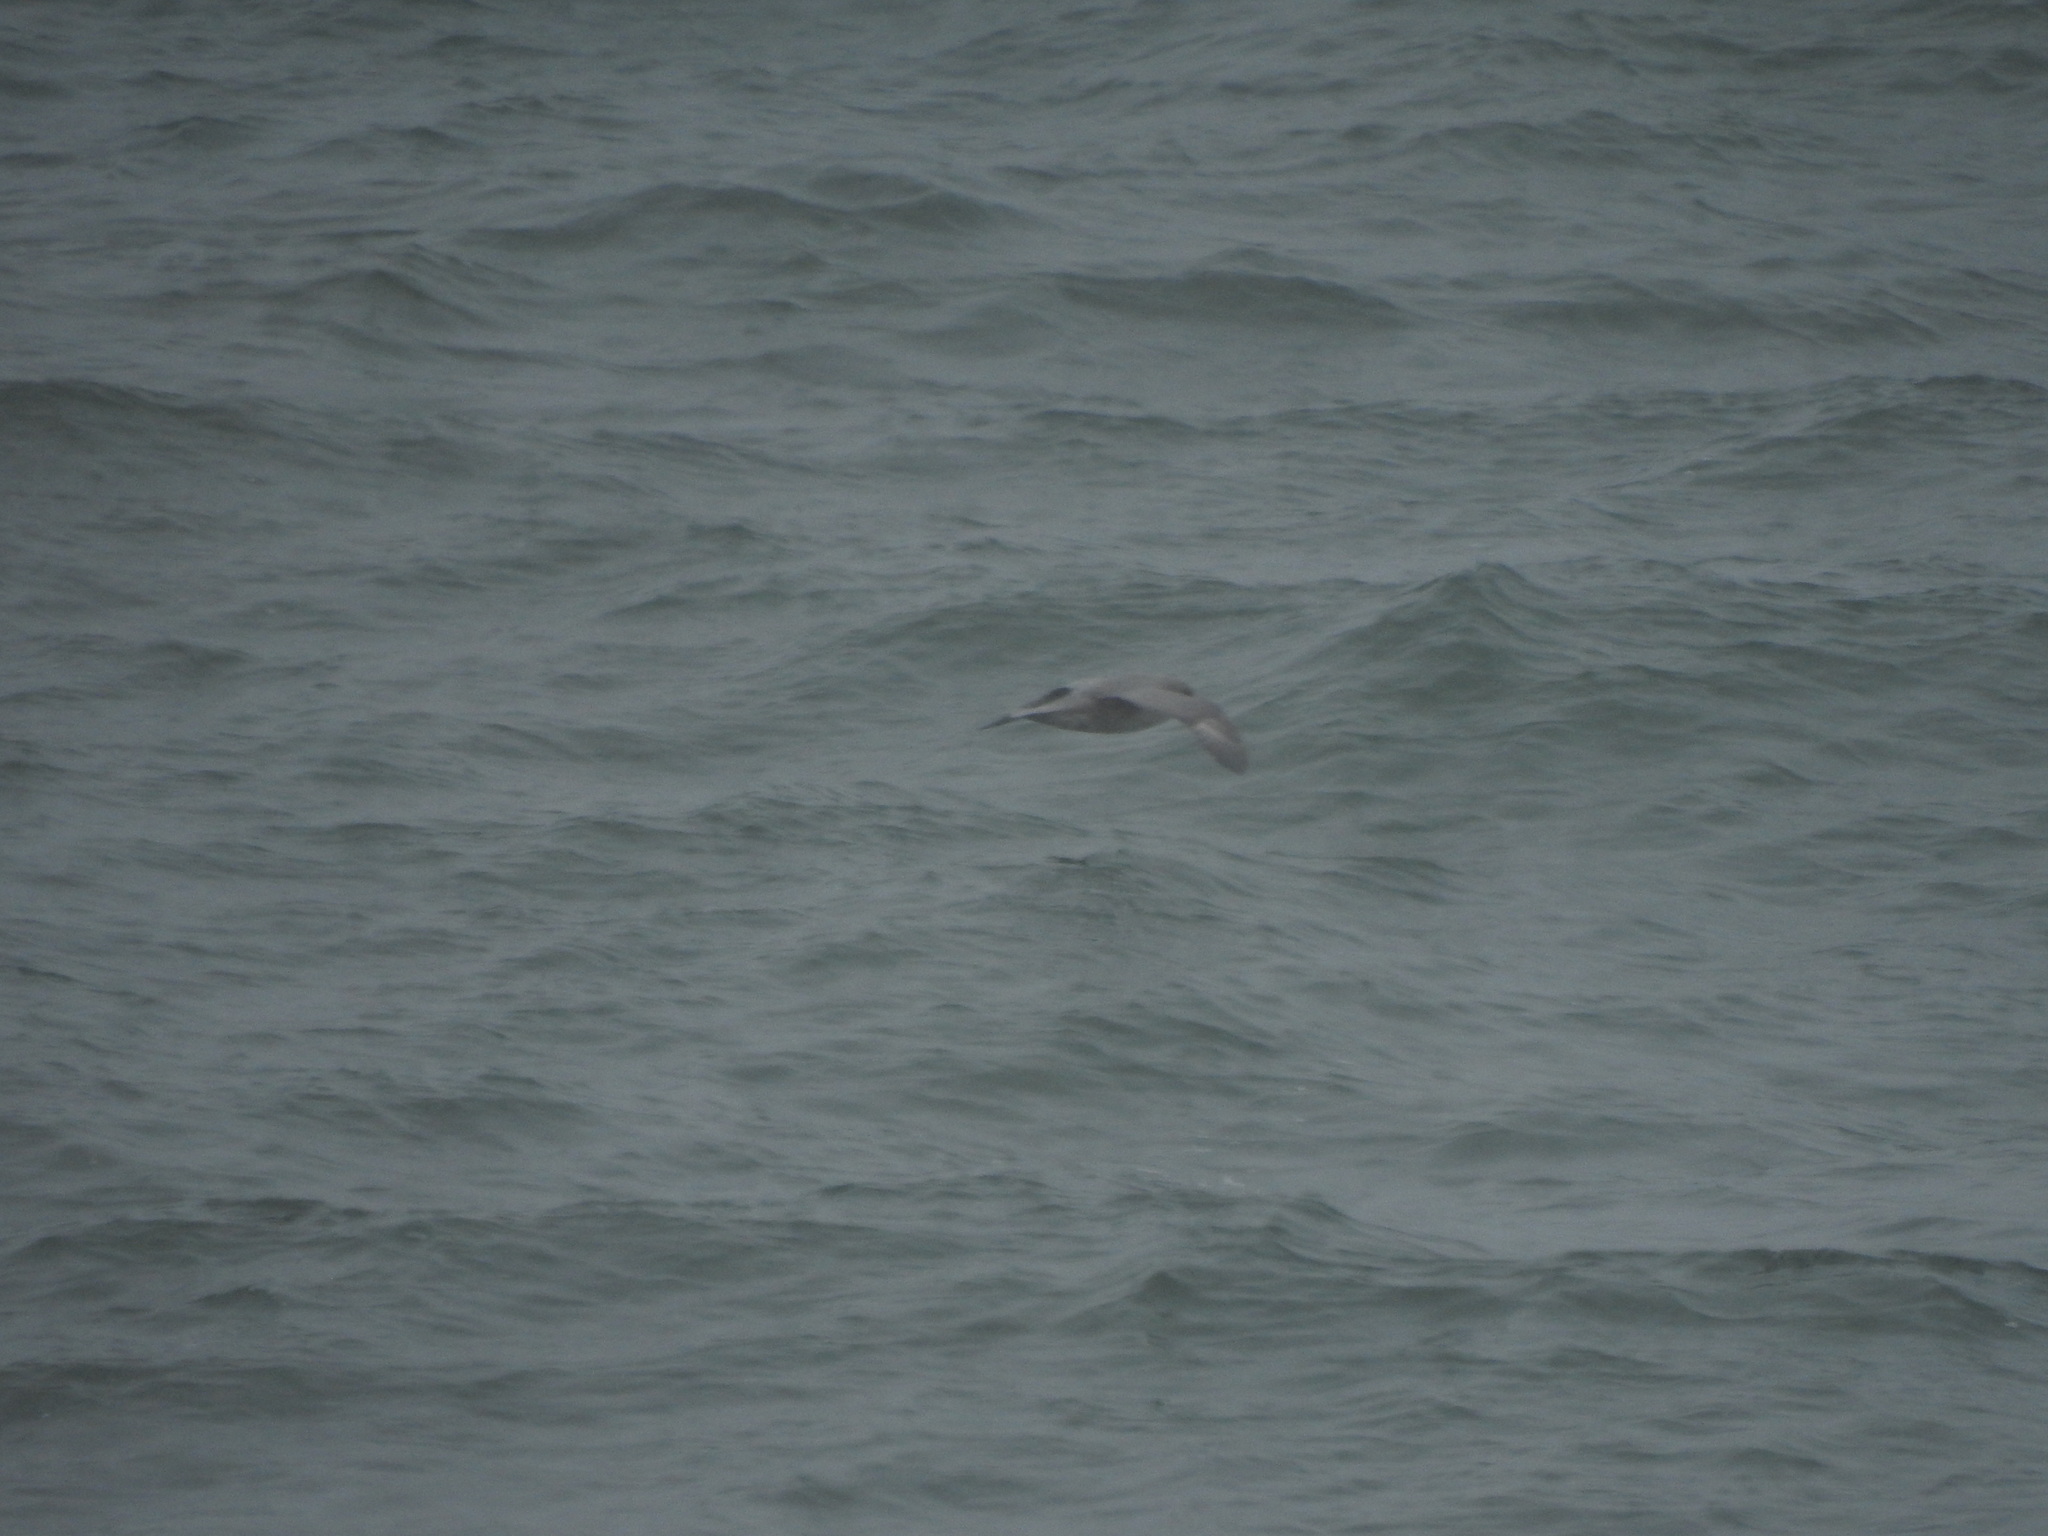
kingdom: Animalia
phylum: Chordata
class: Aves
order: Procellariiformes
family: Procellariidae
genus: Fulmarus
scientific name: Fulmarus glacialis
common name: Northern fulmar
